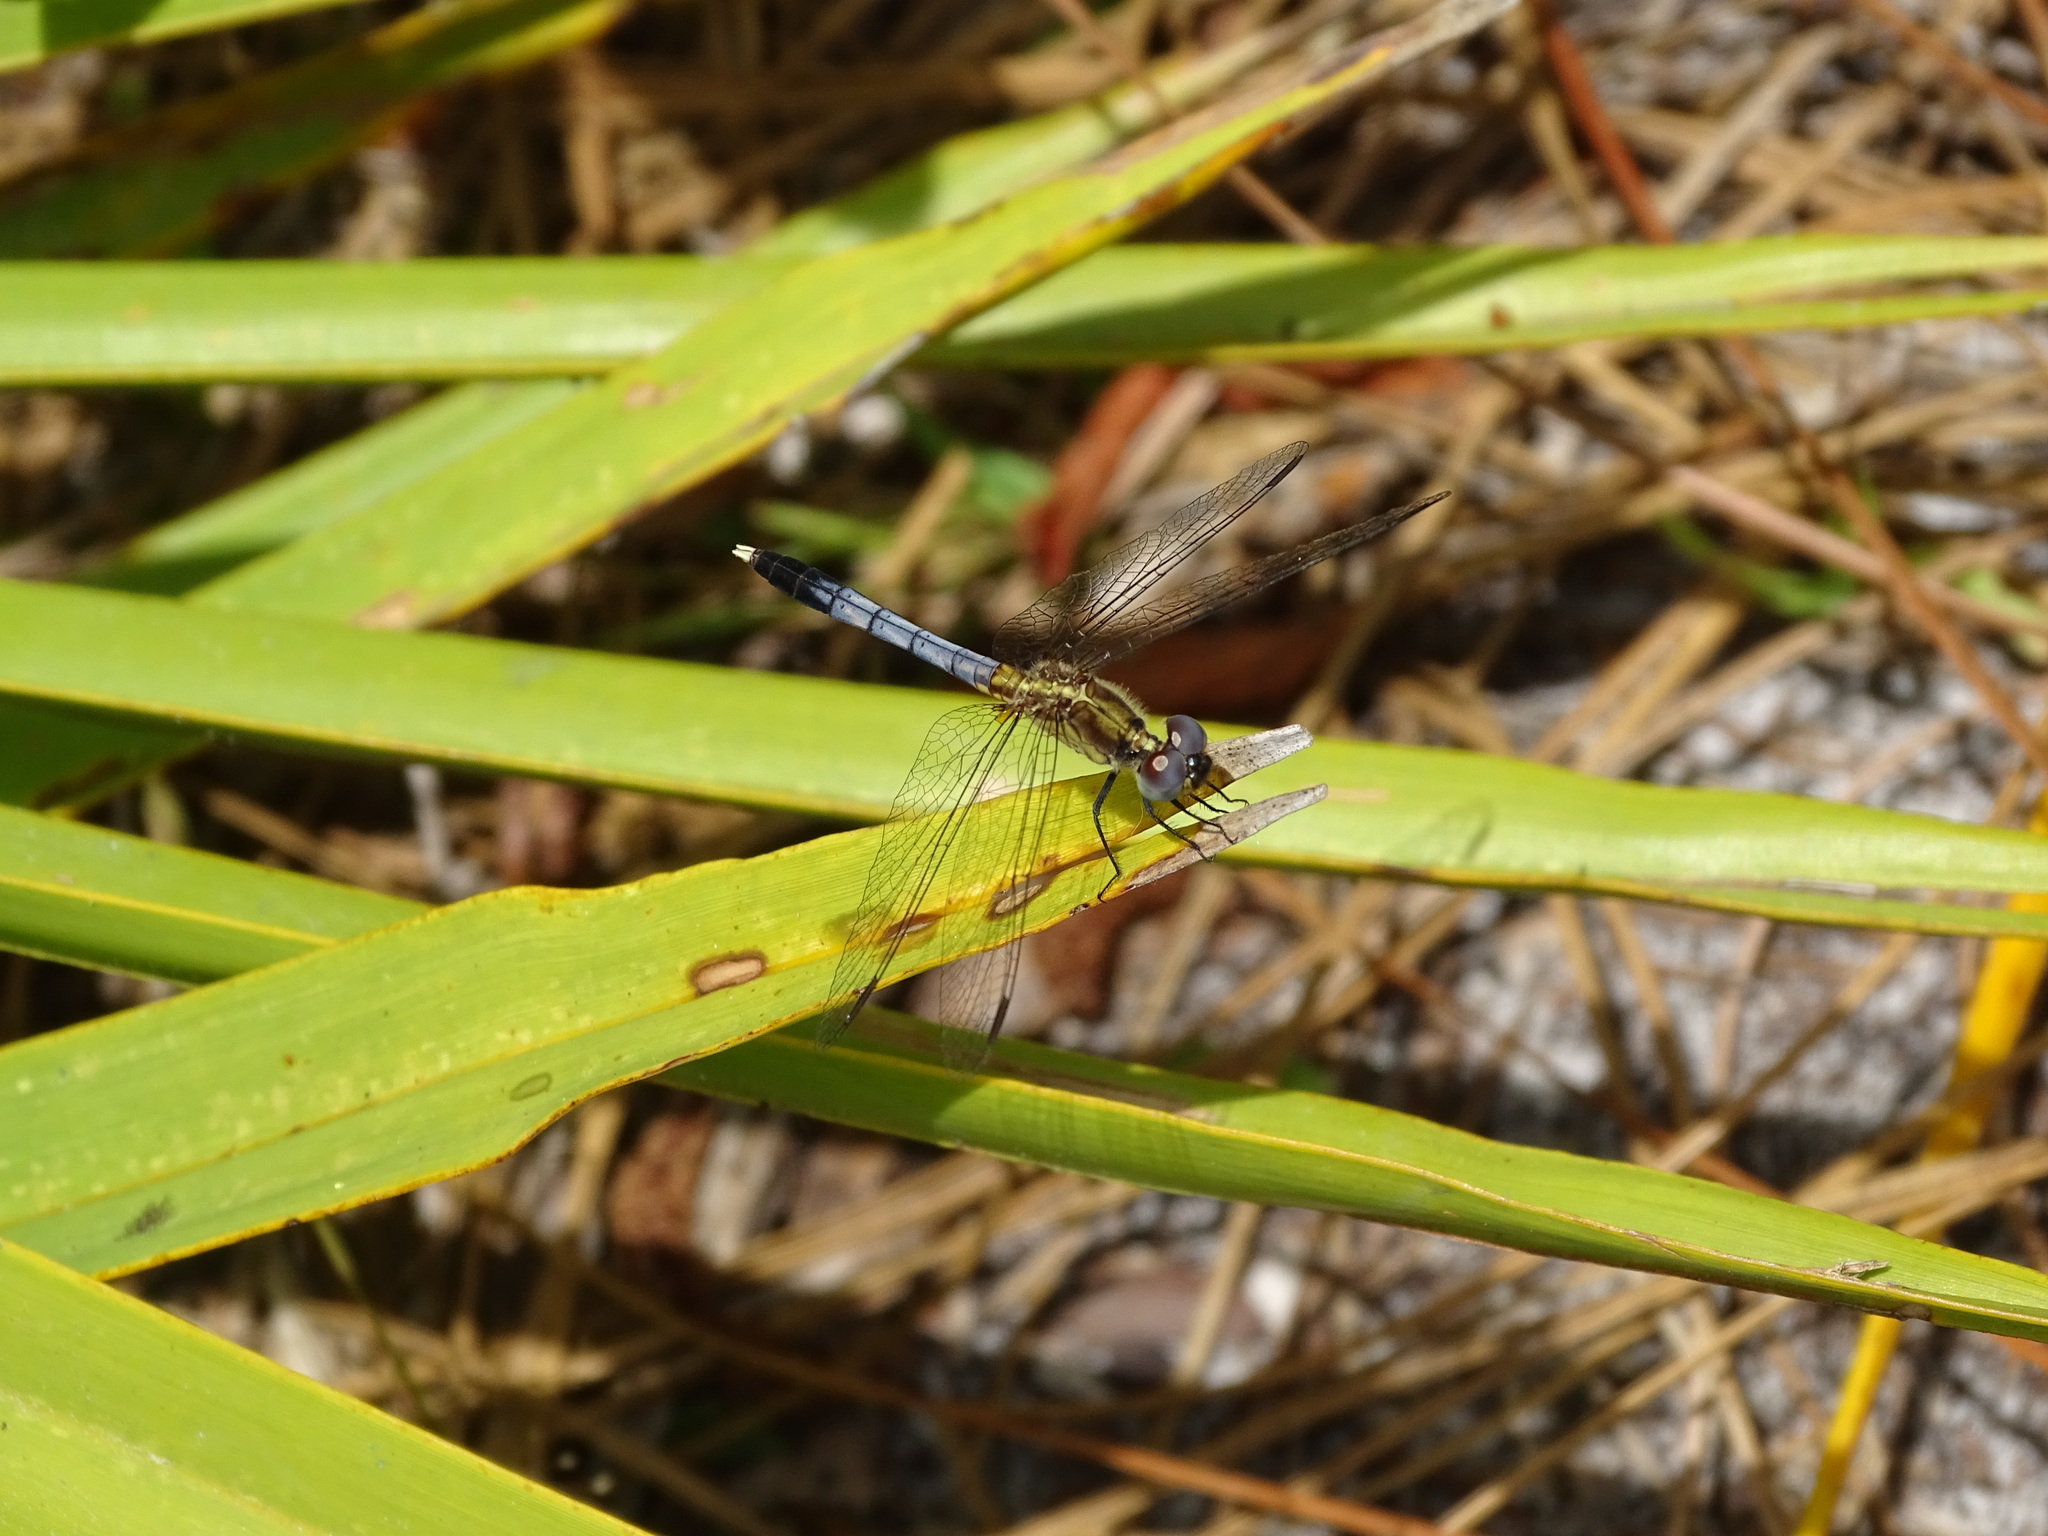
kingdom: Animalia
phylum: Arthropoda
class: Insecta
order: Odonata
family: Libellulidae
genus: Erythrodiplax
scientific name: Erythrodiplax minuscula
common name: Little blue dragonlet
